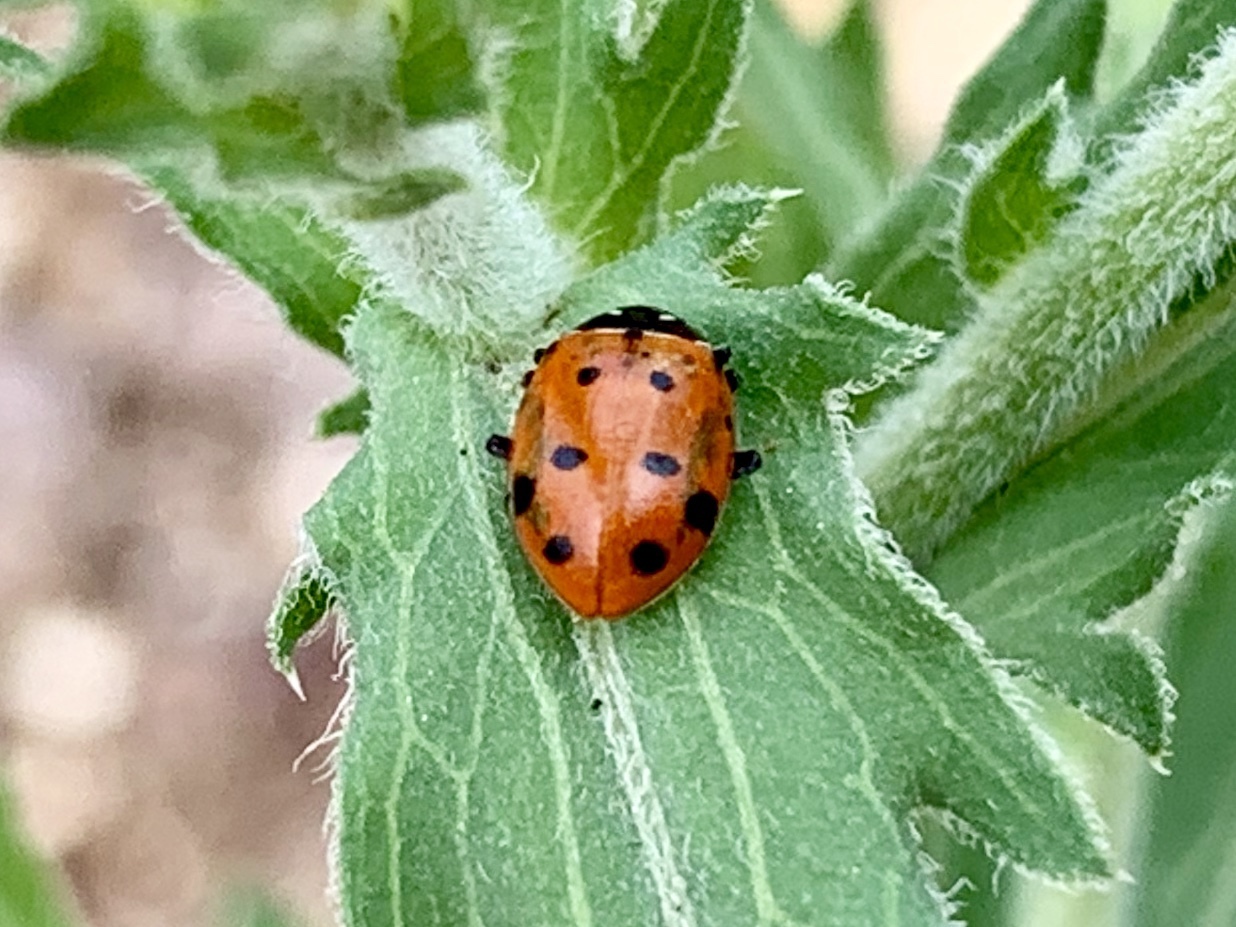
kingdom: Animalia
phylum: Arthropoda
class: Insecta
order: Coleoptera
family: Coccinellidae
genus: Hippodamia
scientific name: Hippodamia convergens
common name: Convergent lady beetle
